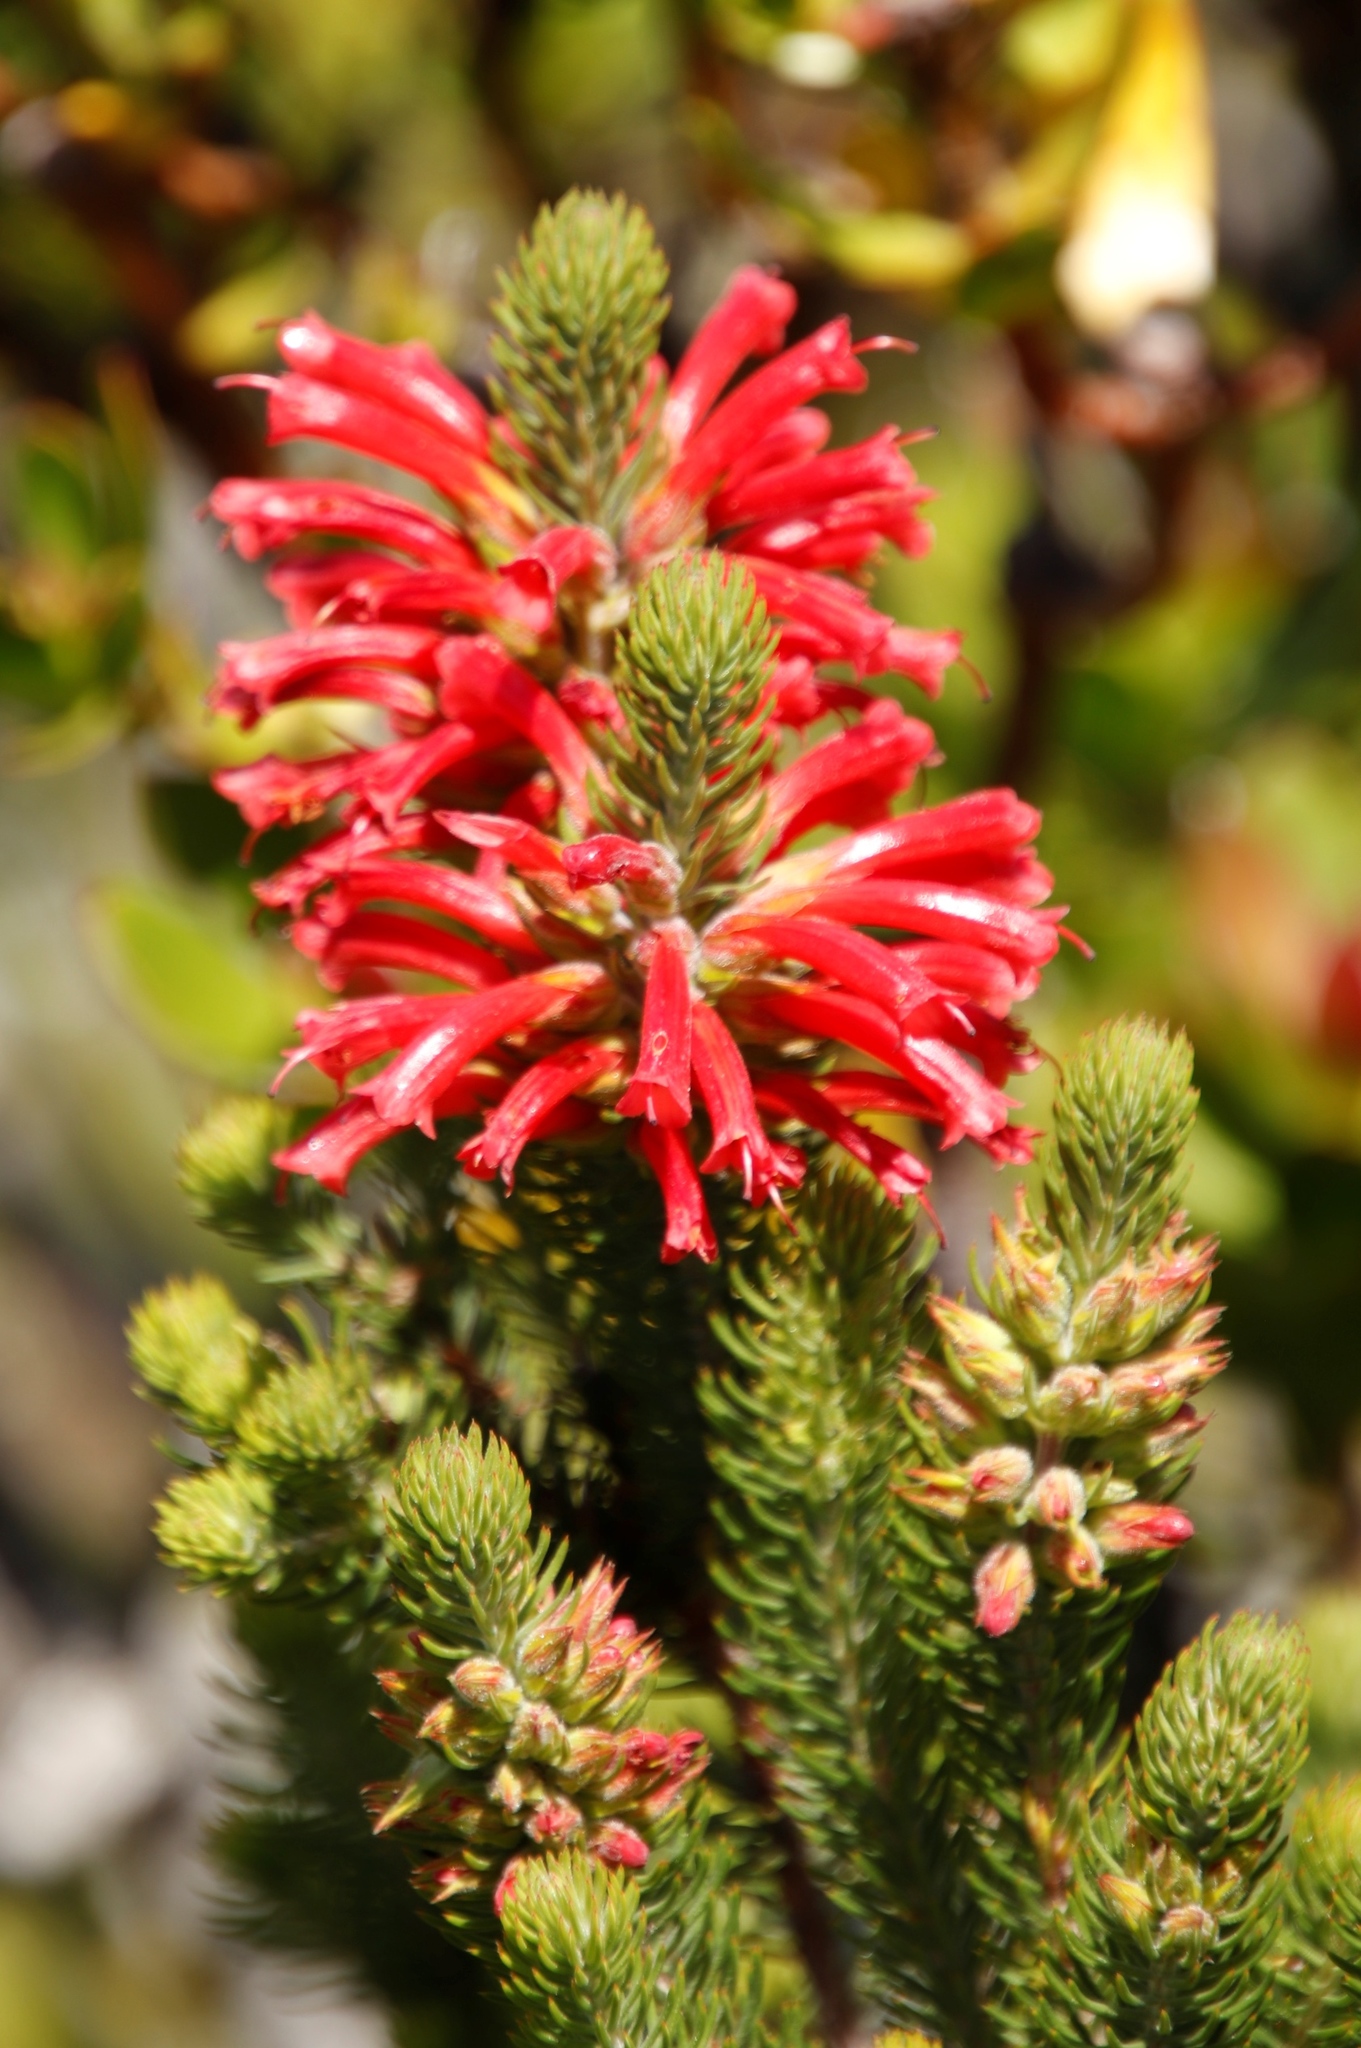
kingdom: Plantae
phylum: Tracheophyta
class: Magnoliopsida
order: Ericales
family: Ericaceae
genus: Erica
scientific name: Erica abietina
